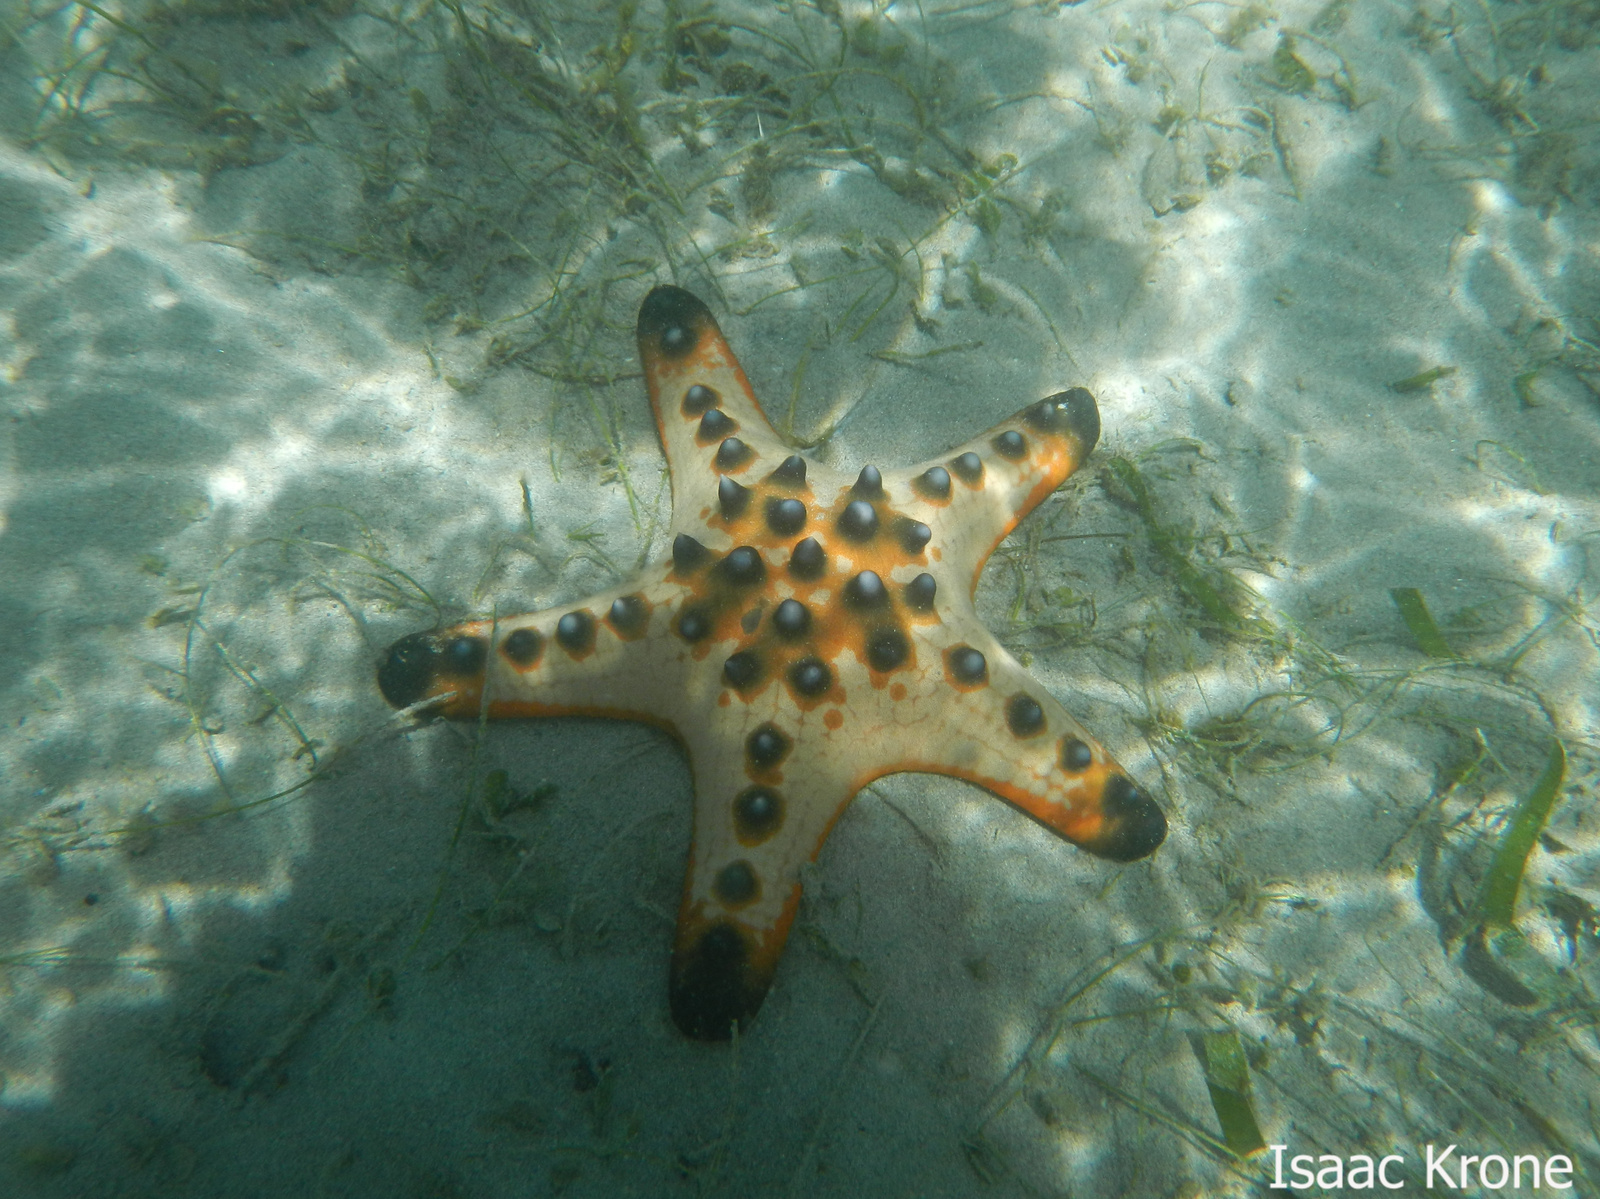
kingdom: Animalia
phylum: Echinodermata
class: Asteroidea
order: Valvatida
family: Oreasteridae
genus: Protoreaster
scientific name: Protoreaster nodosus
